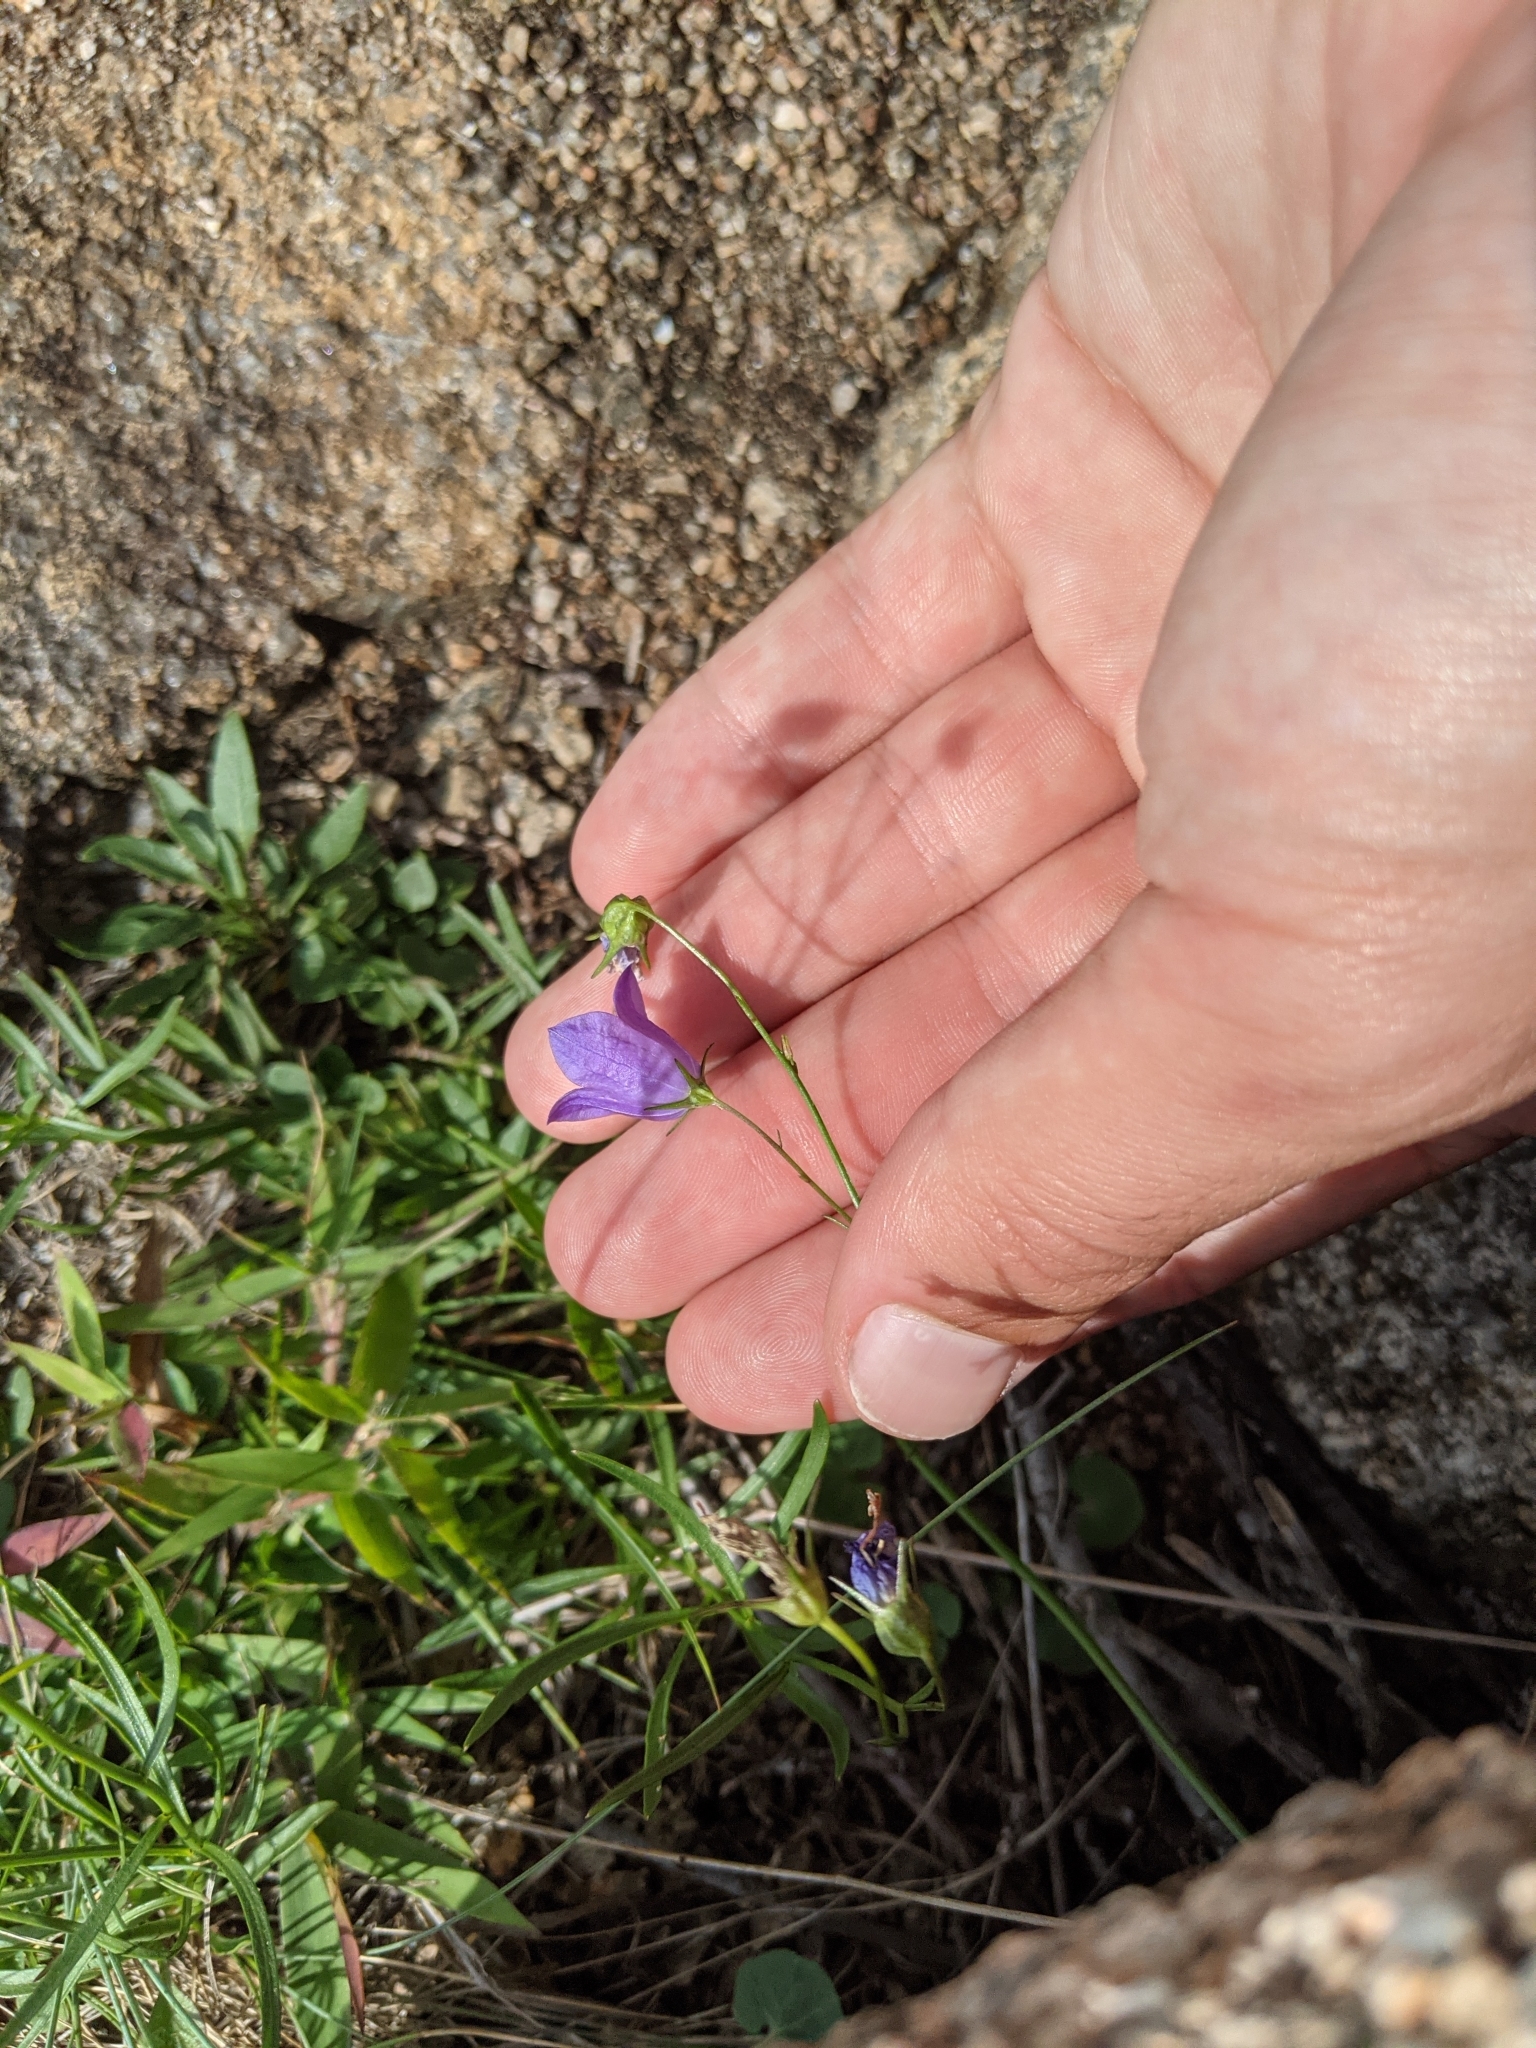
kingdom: Plantae
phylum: Tracheophyta
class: Magnoliopsida
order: Asterales
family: Campanulaceae
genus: Campanula
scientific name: Campanula intercedens
